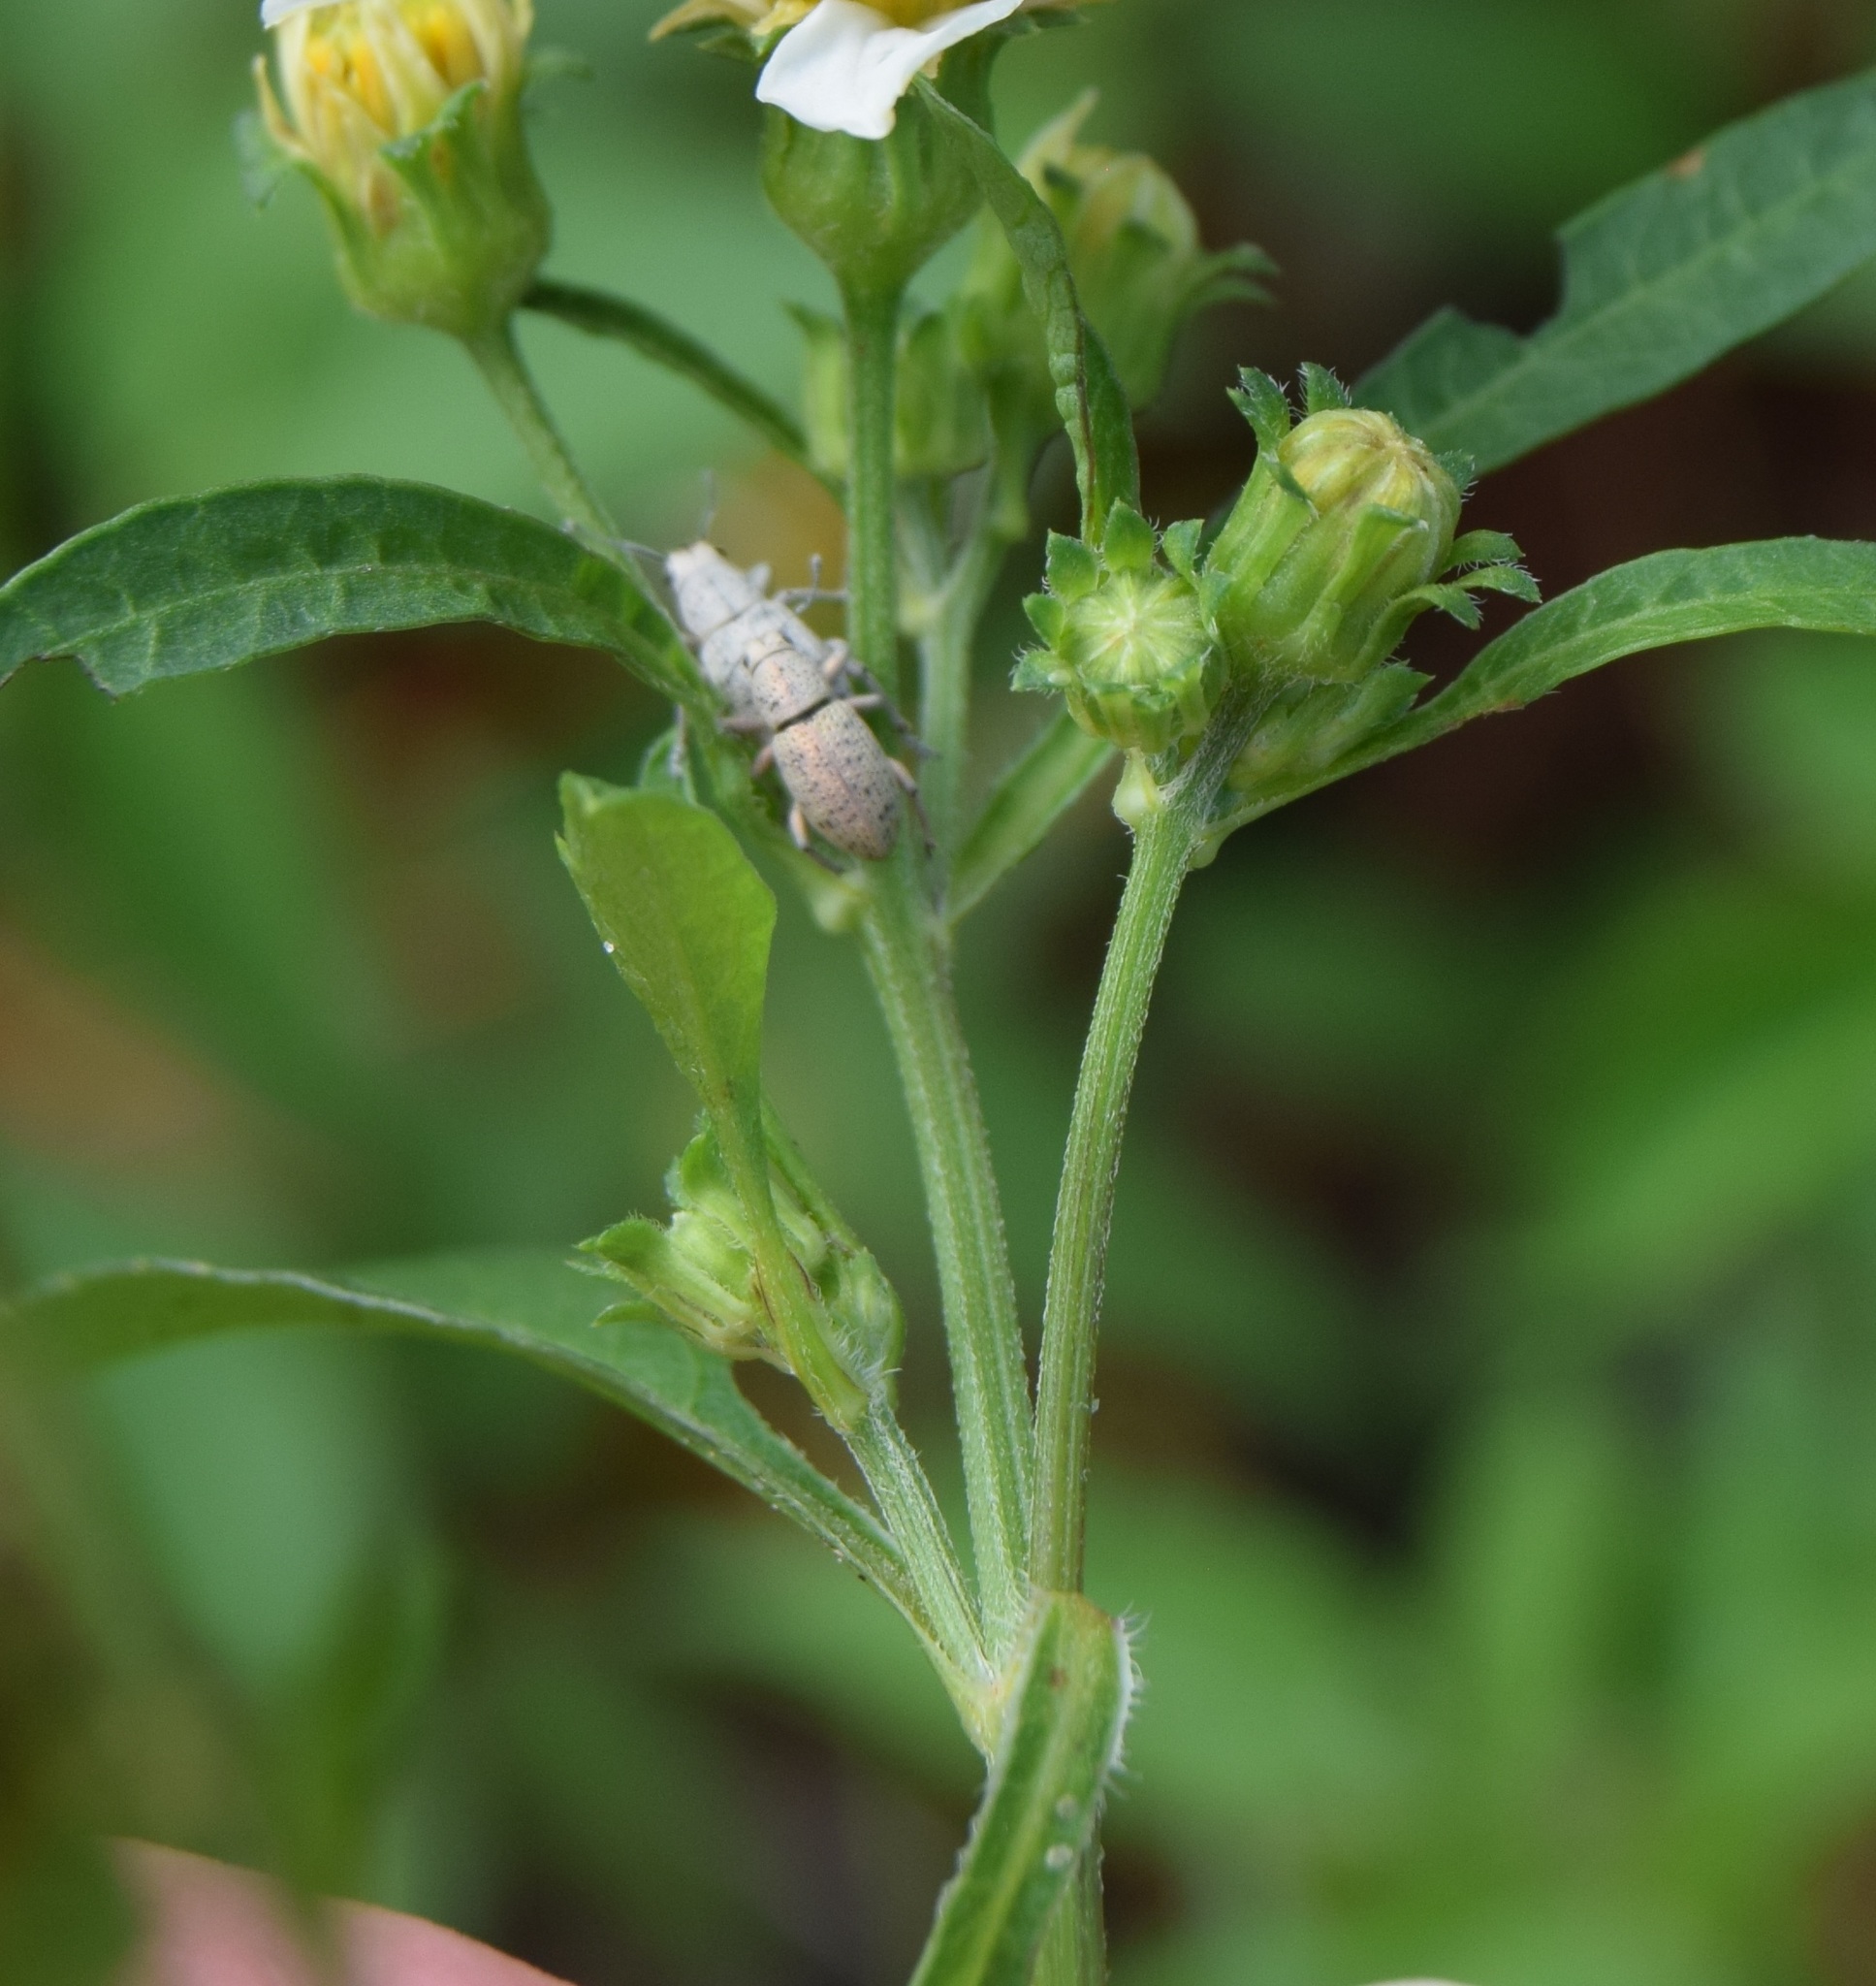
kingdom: Animalia
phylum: Arthropoda
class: Insecta
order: Coleoptera
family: Curculionidae
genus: Artipus
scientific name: Artipus floridanus
